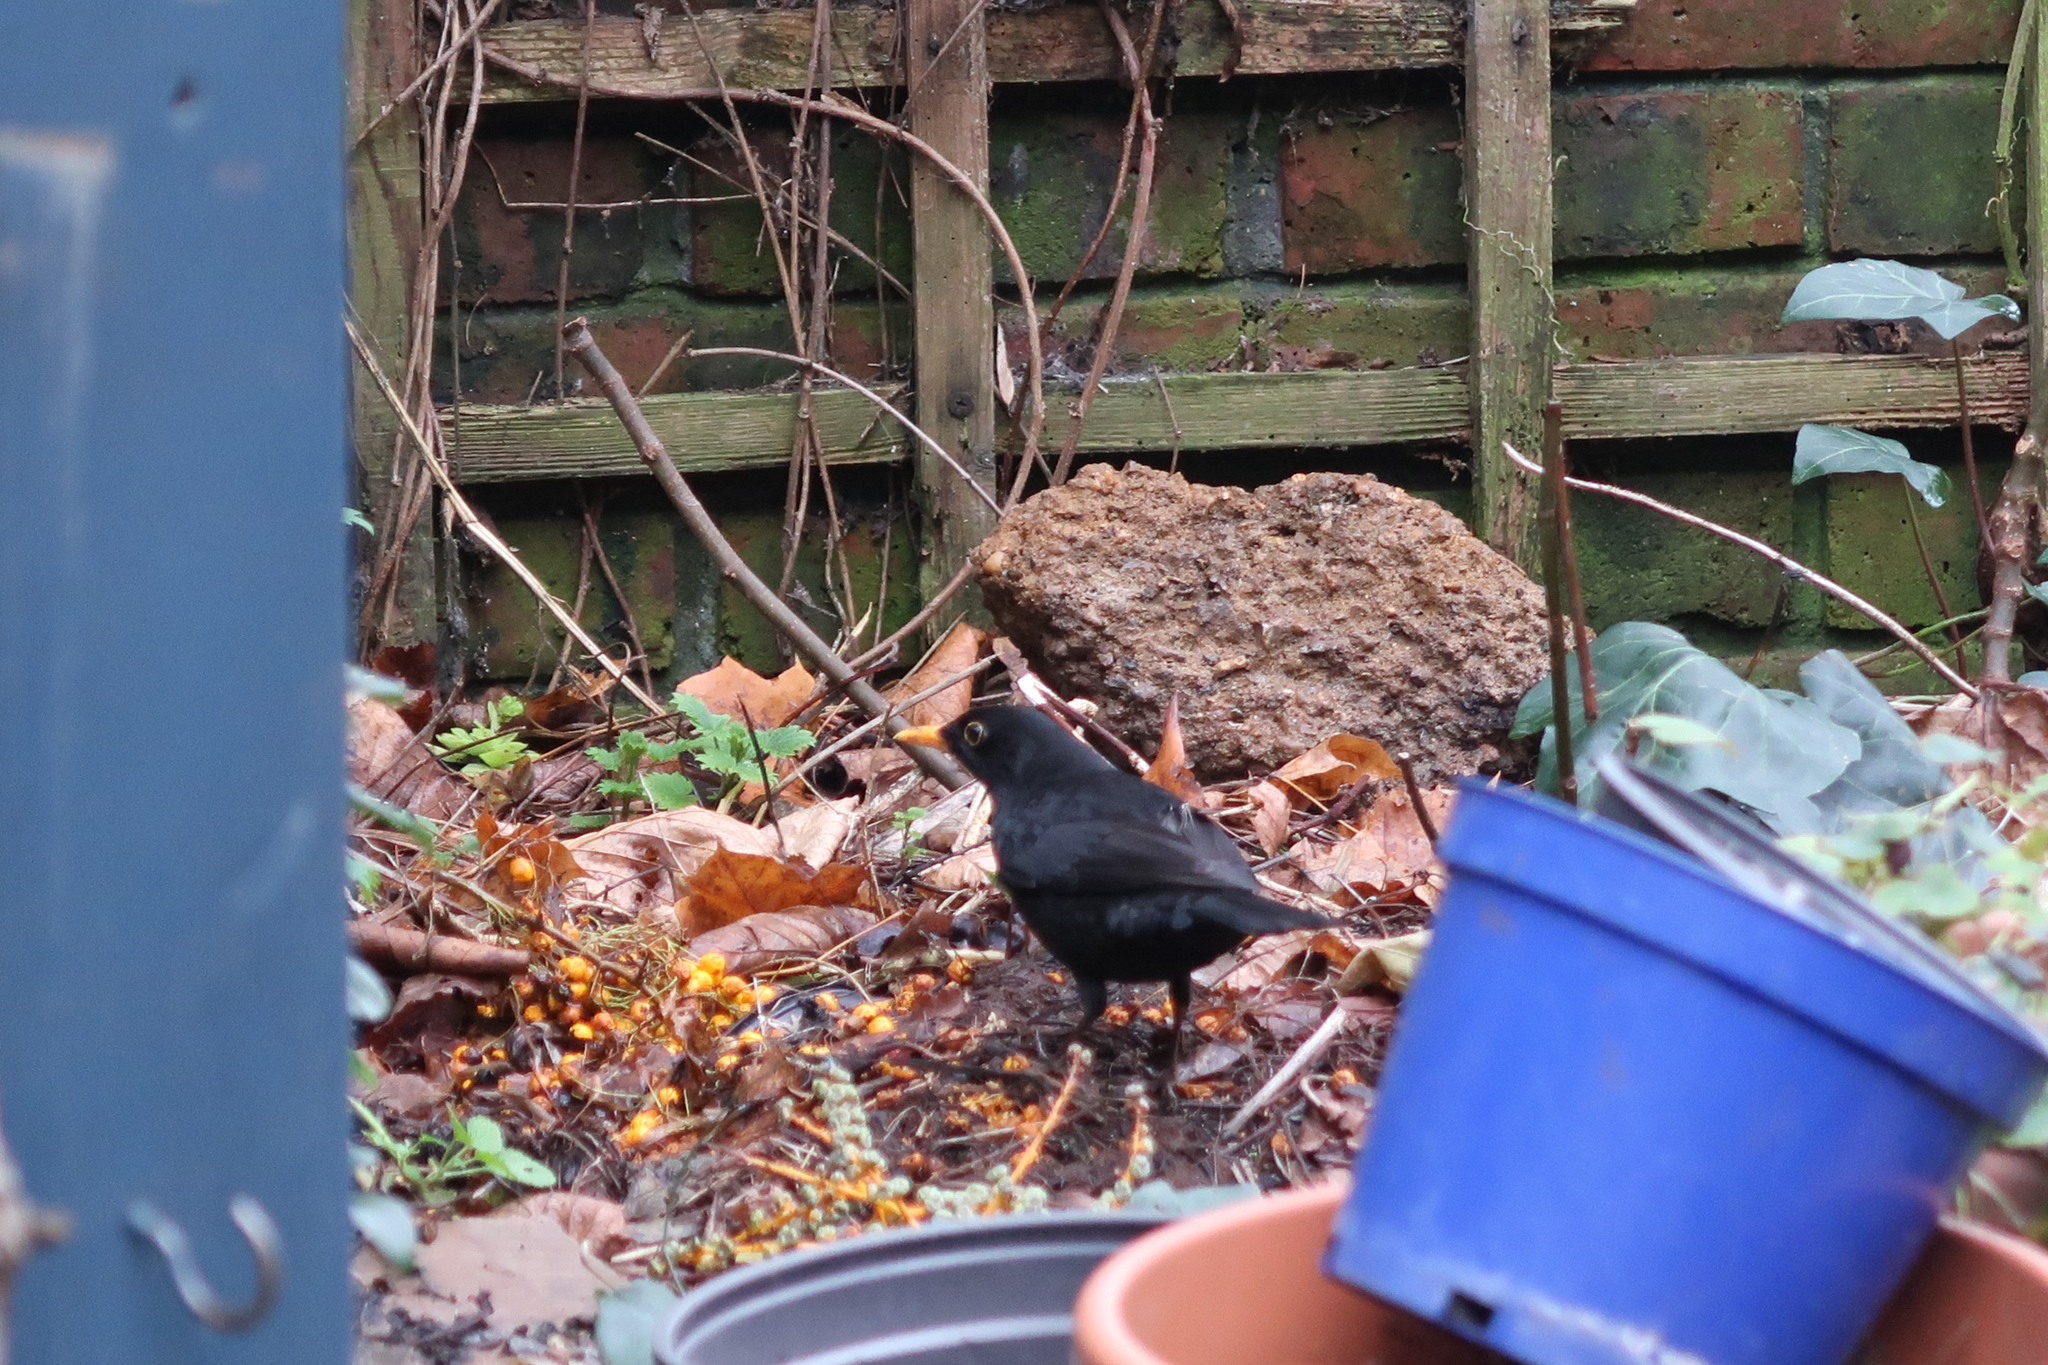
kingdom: Animalia
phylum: Chordata
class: Aves
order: Passeriformes
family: Turdidae
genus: Turdus
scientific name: Turdus merula
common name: Common blackbird
